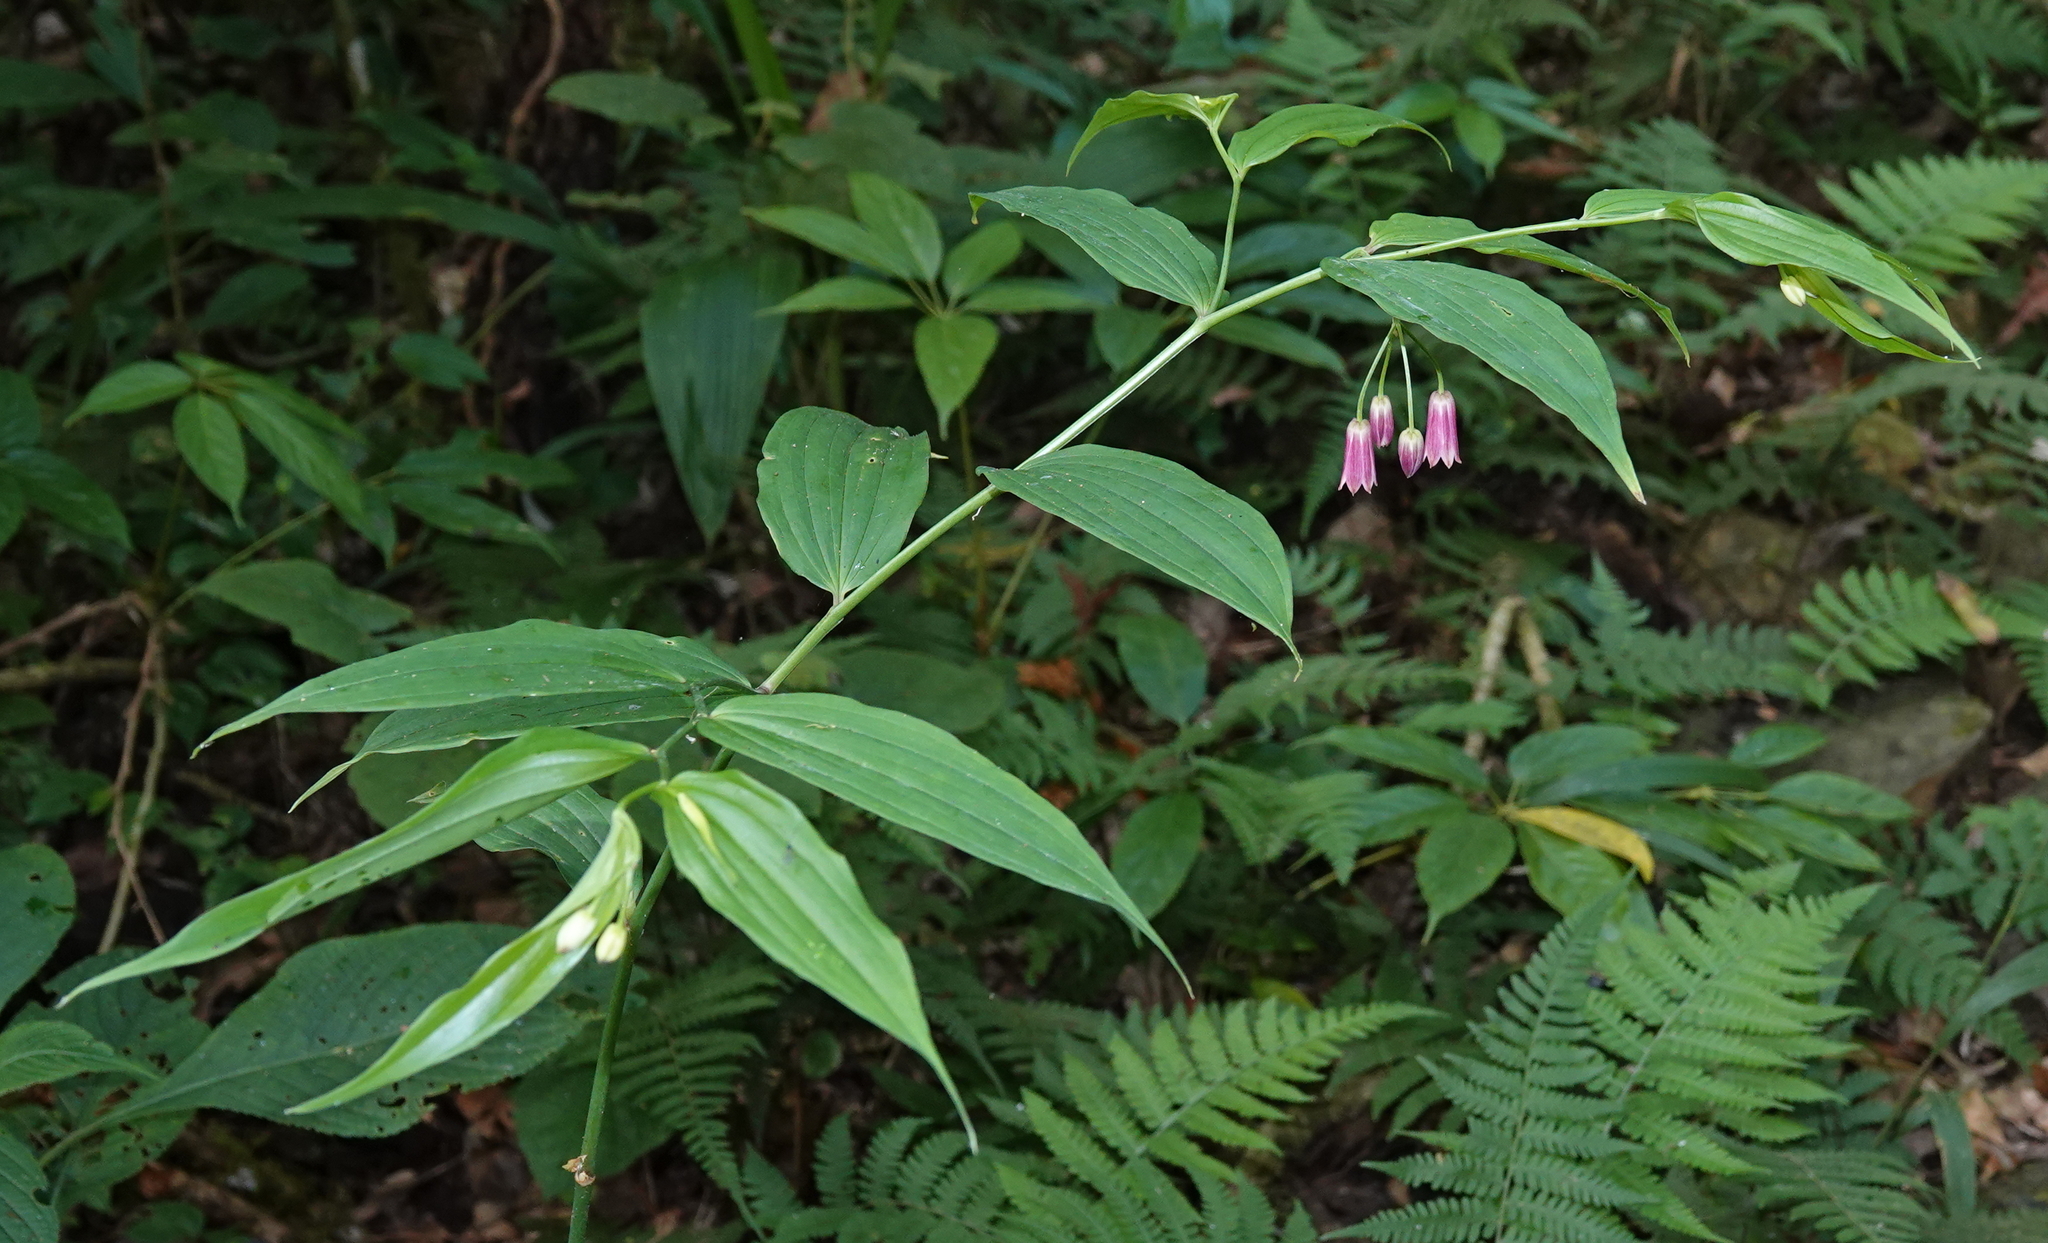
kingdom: Plantae
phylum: Tracheophyta
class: Liliopsida
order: Liliales
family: Colchicaceae
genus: Disporum
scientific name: Disporum cantoniense
